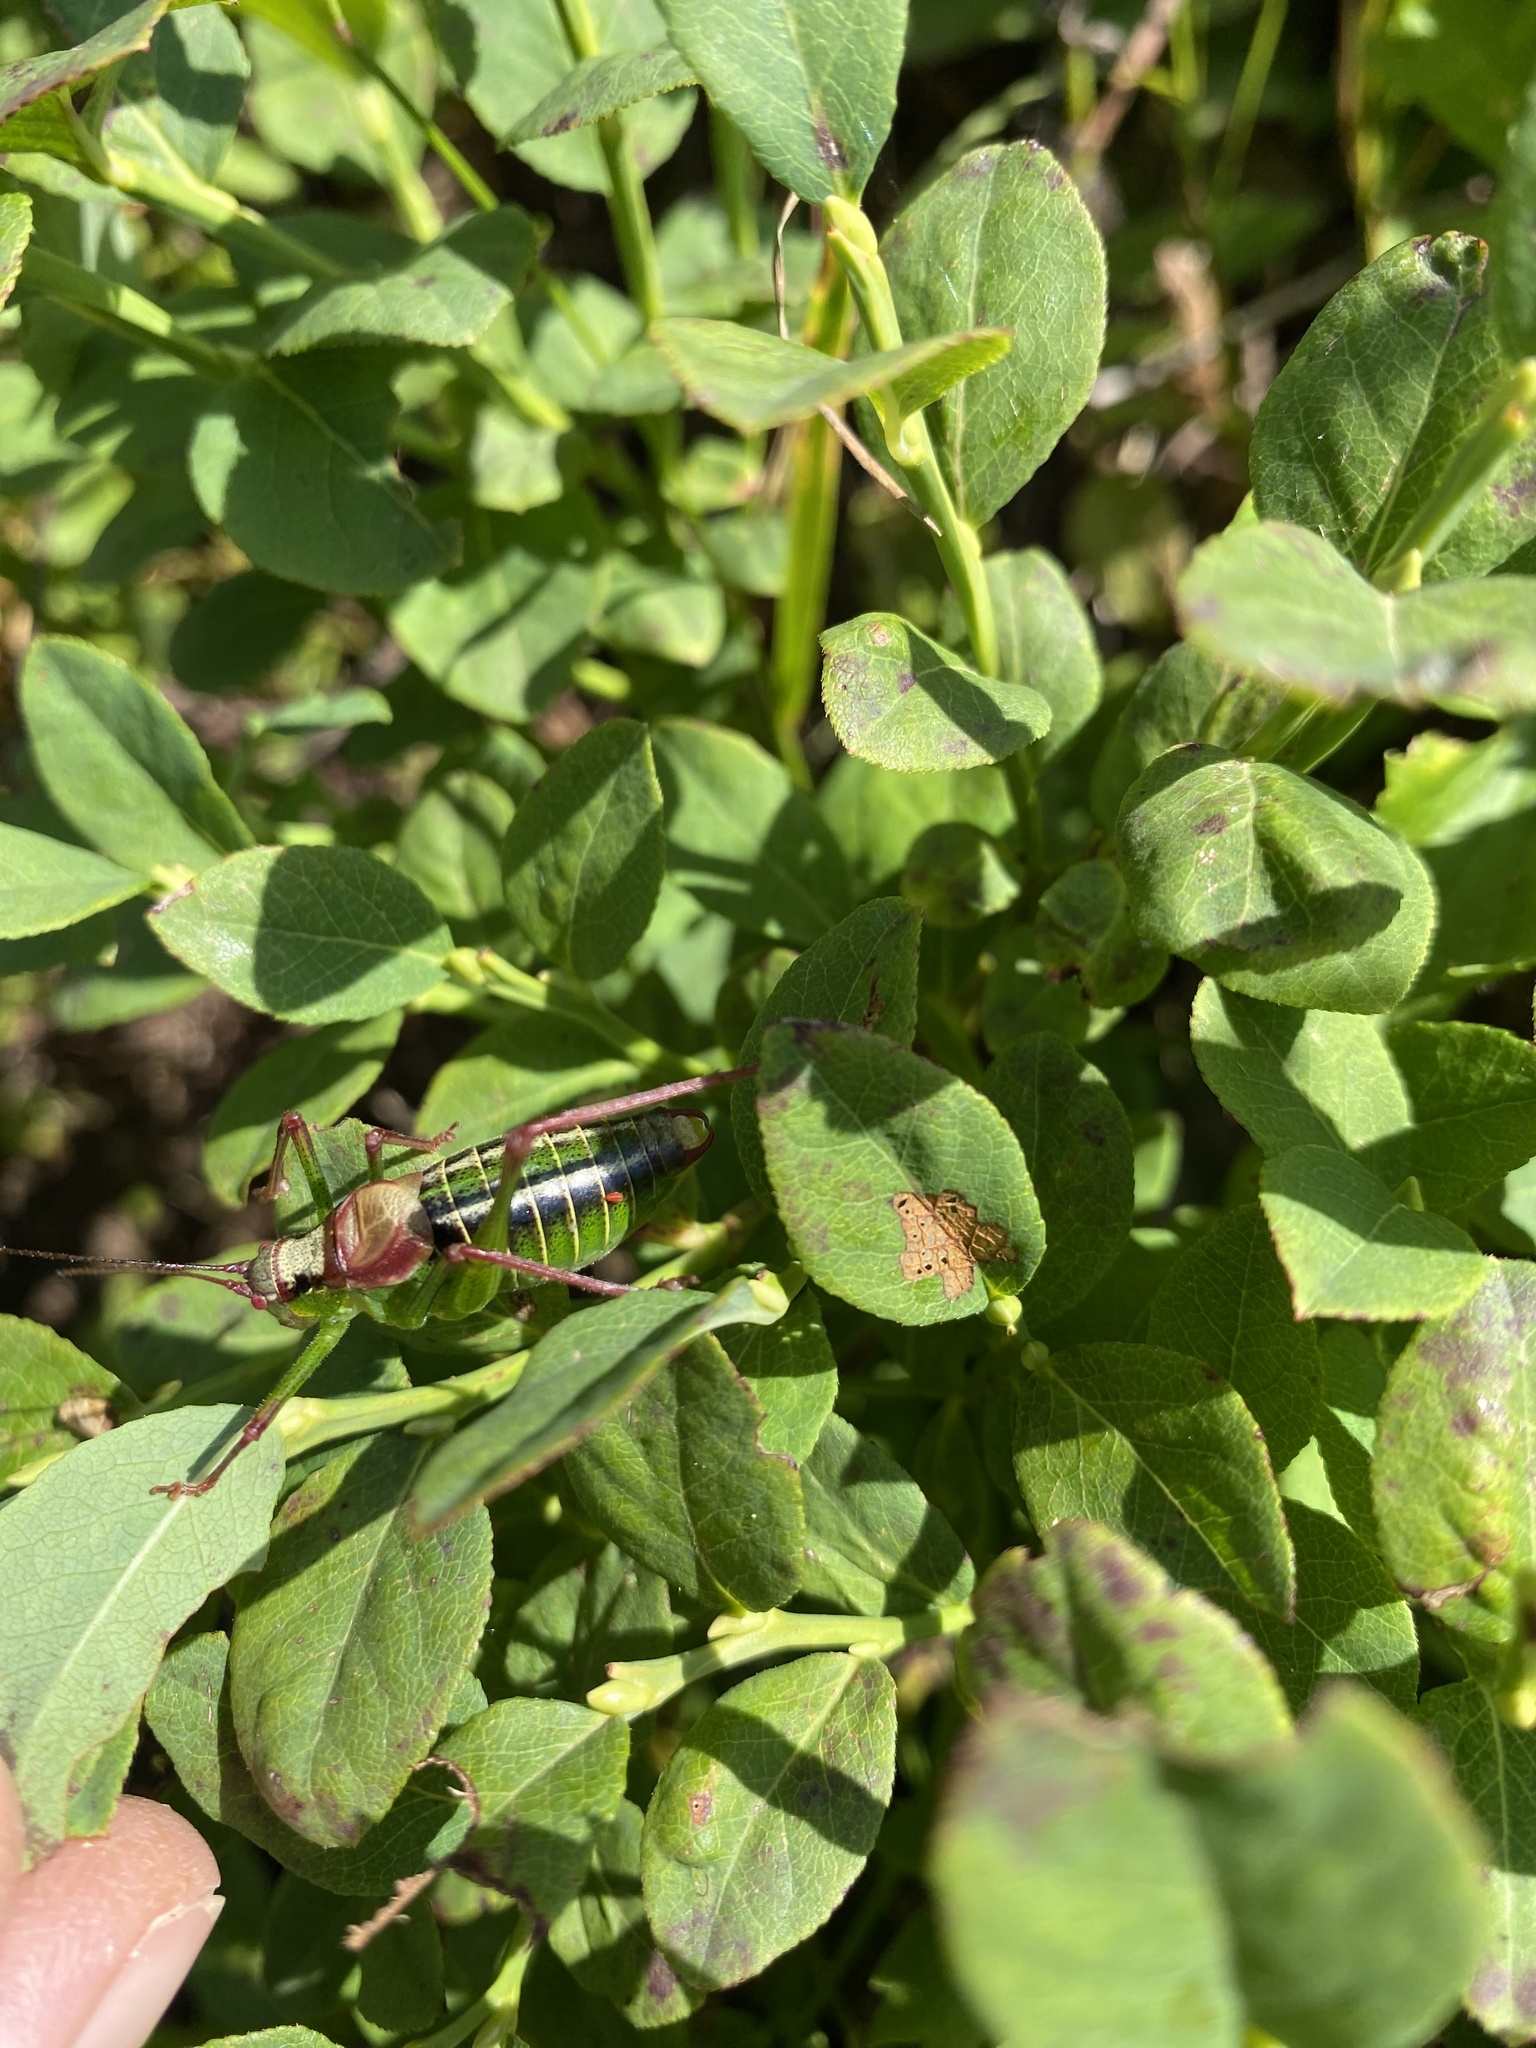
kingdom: Animalia
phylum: Arthropoda
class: Insecta
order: Orthoptera
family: Tettigoniidae
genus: Isophya
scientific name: Isophya speciosa
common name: Showy plump bush-cricket
